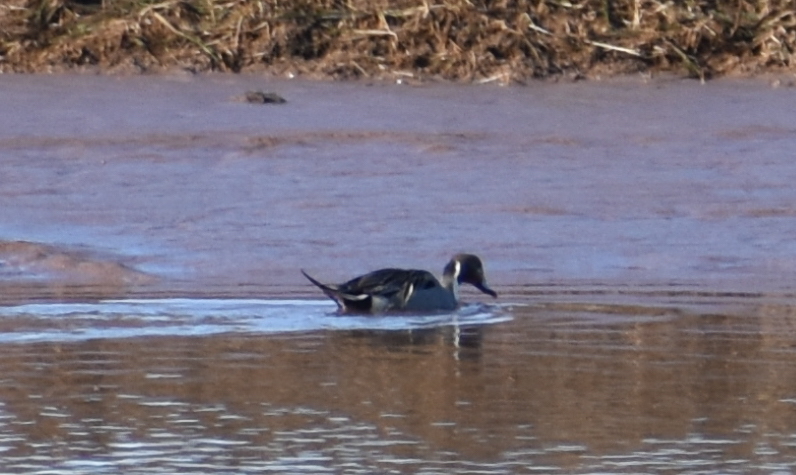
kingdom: Animalia
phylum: Chordata
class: Aves
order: Anseriformes
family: Anatidae
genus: Anas
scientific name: Anas acuta
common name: Northern pintail
